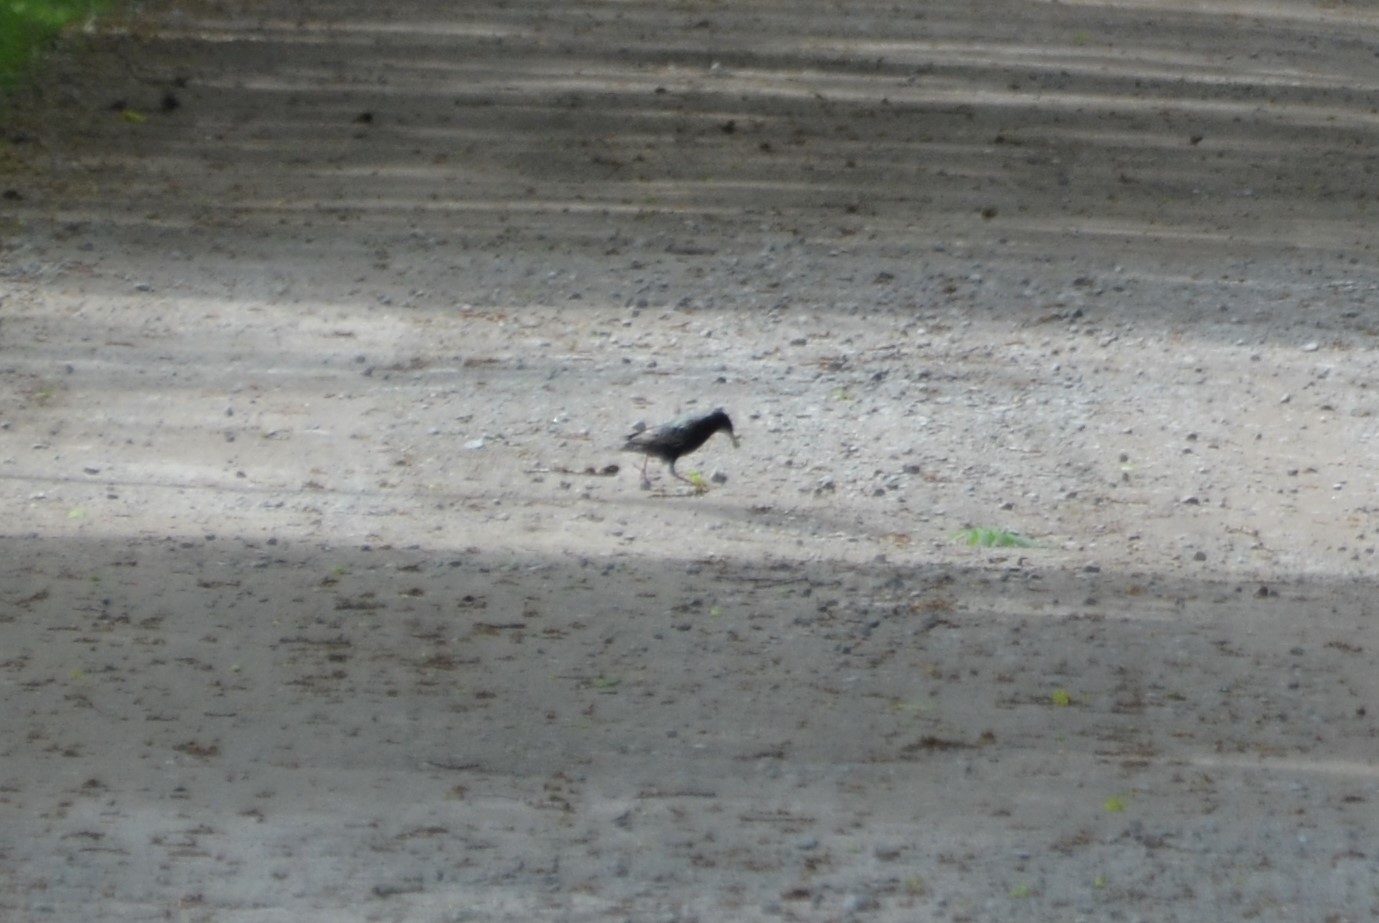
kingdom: Animalia
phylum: Chordata
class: Aves
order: Passeriformes
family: Sturnidae
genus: Sturnus
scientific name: Sturnus vulgaris
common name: Common starling
